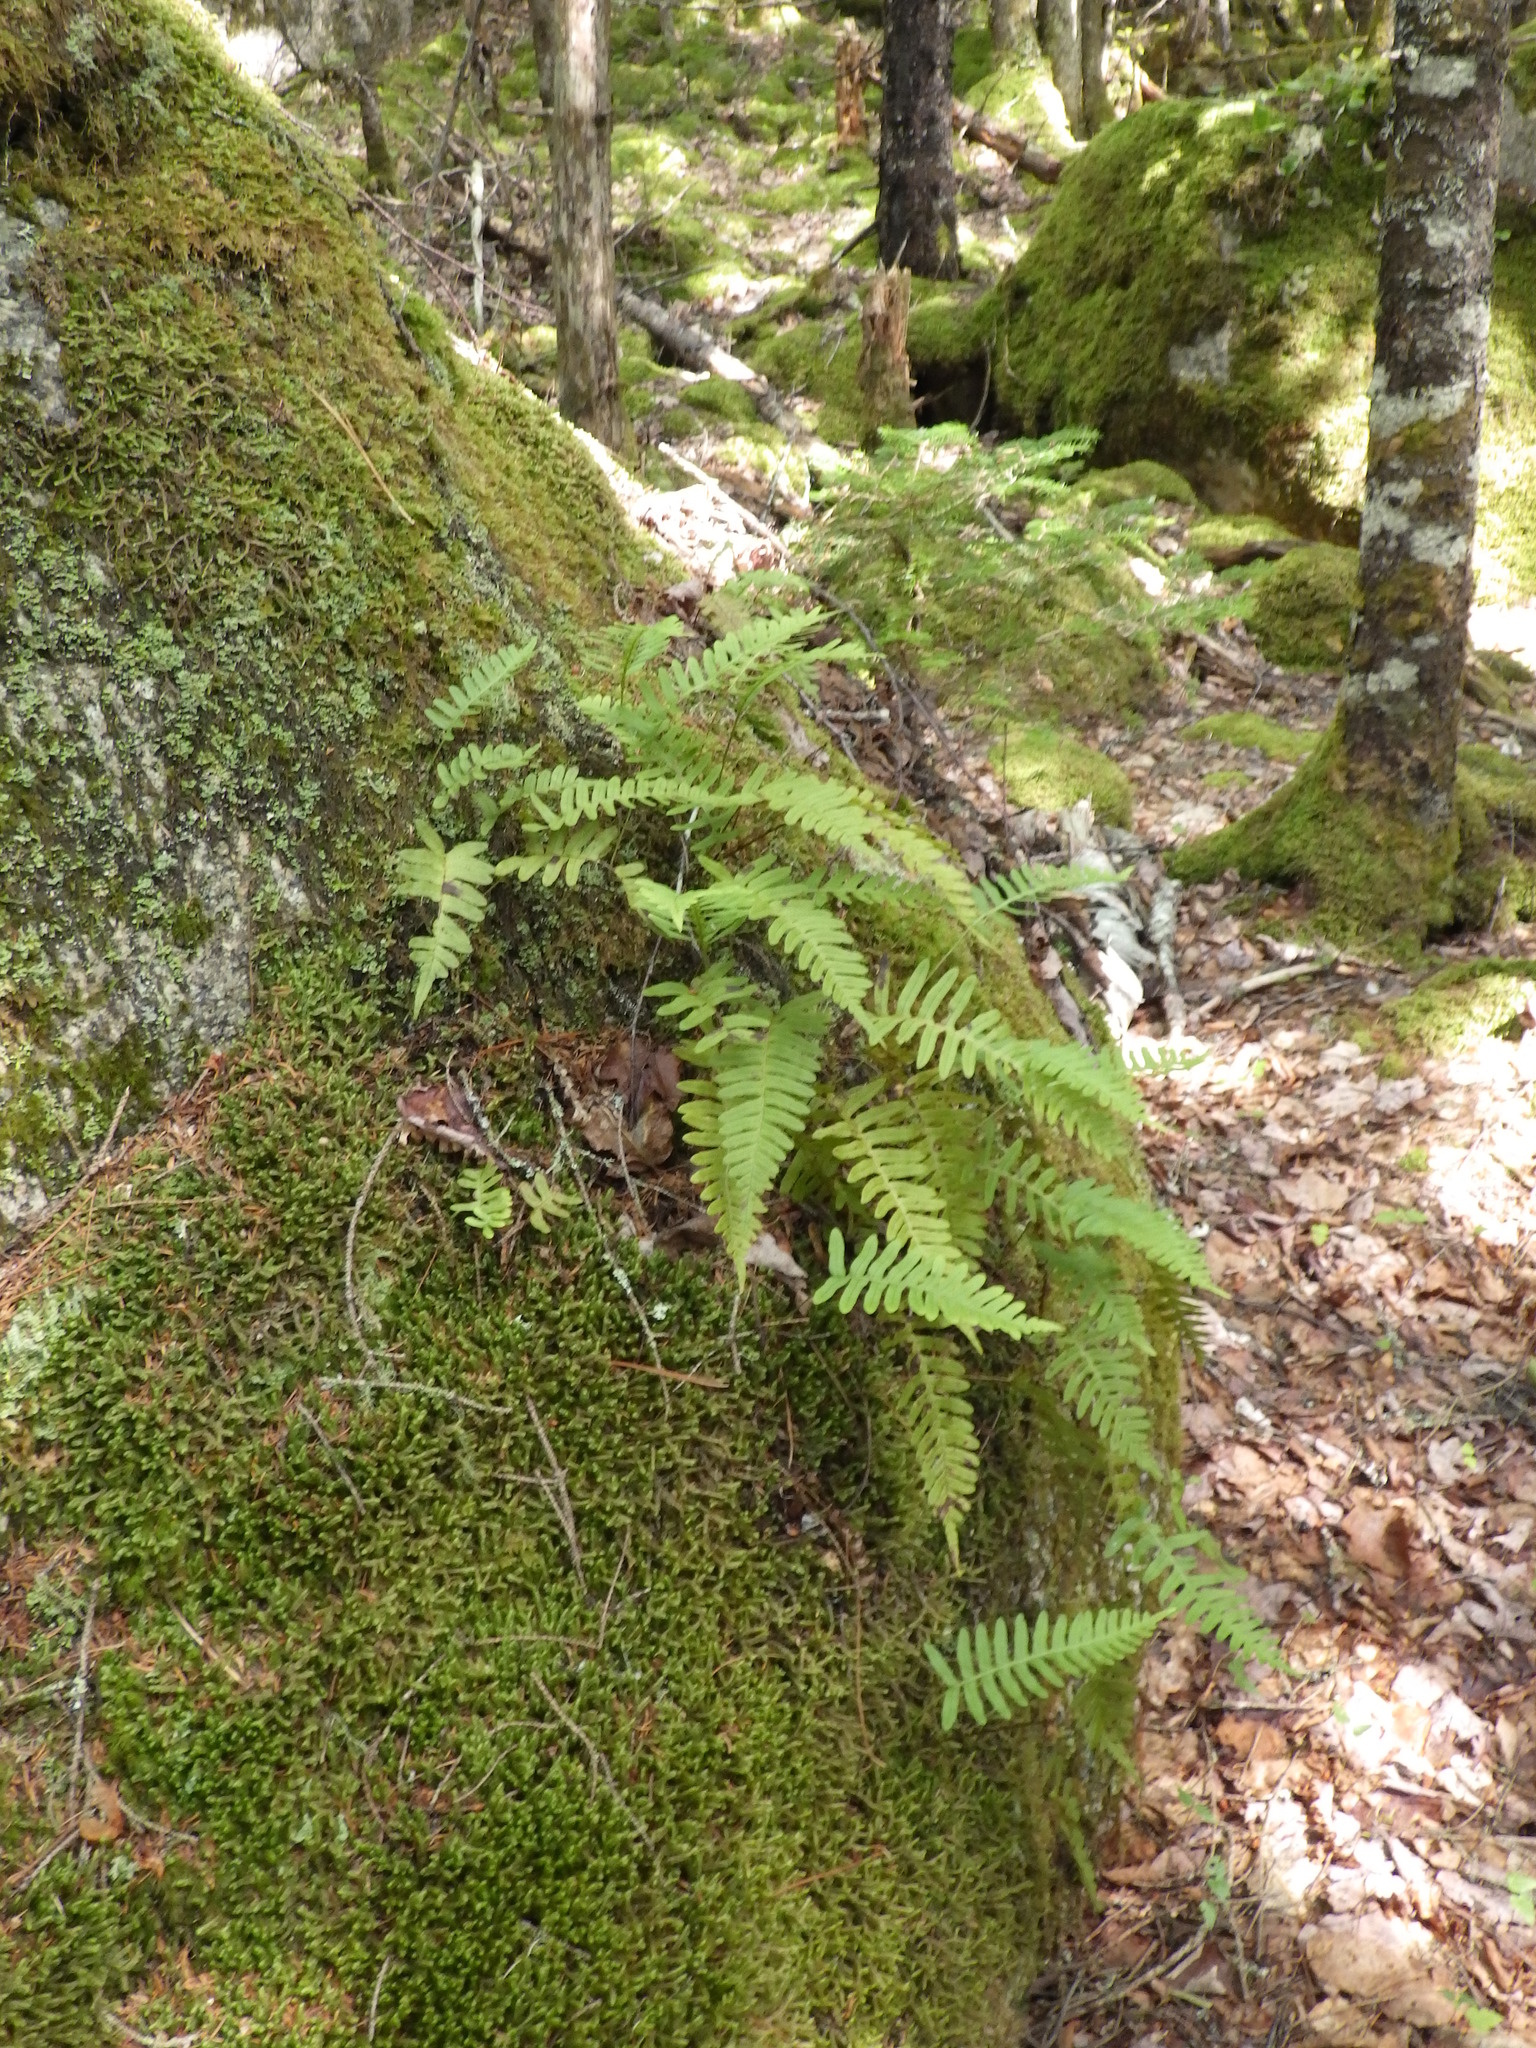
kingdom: Plantae
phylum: Tracheophyta
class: Polypodiopsida
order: Polypodiales
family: Polypodiaceae
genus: Polypodium
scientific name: Polypodium virginianum
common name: American wall fern
